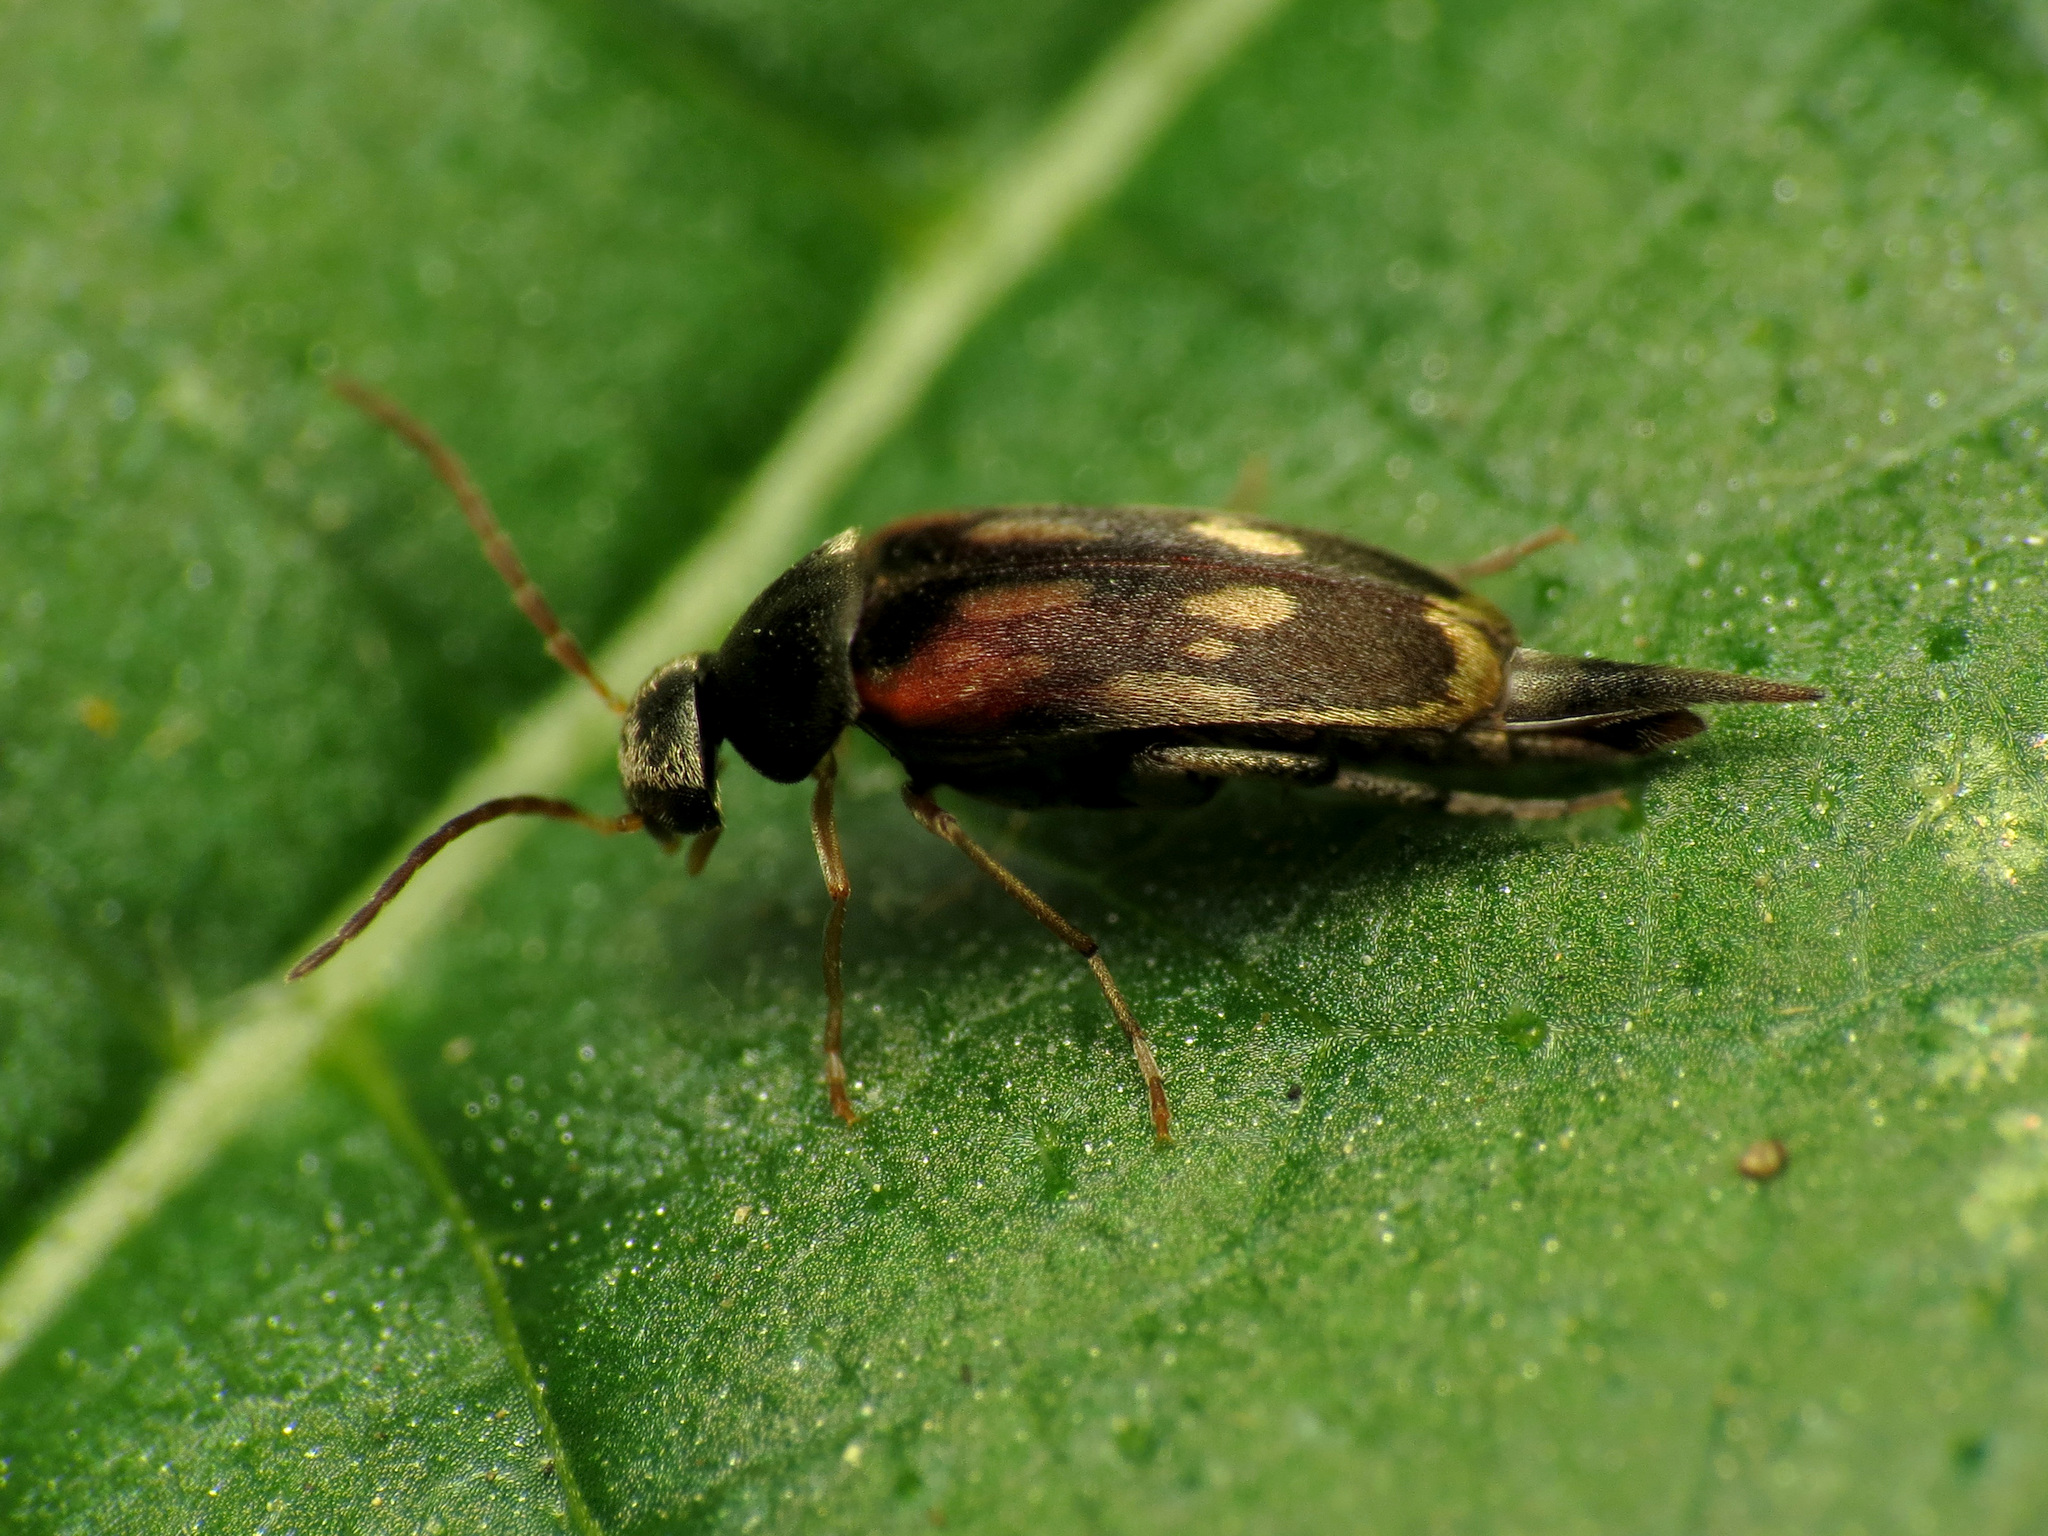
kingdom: Animalia
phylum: Arthropoda
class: Insecta
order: Coleoptera
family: Mordellidae
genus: Falsomordellistena
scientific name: Falsomordellistena bihamata
